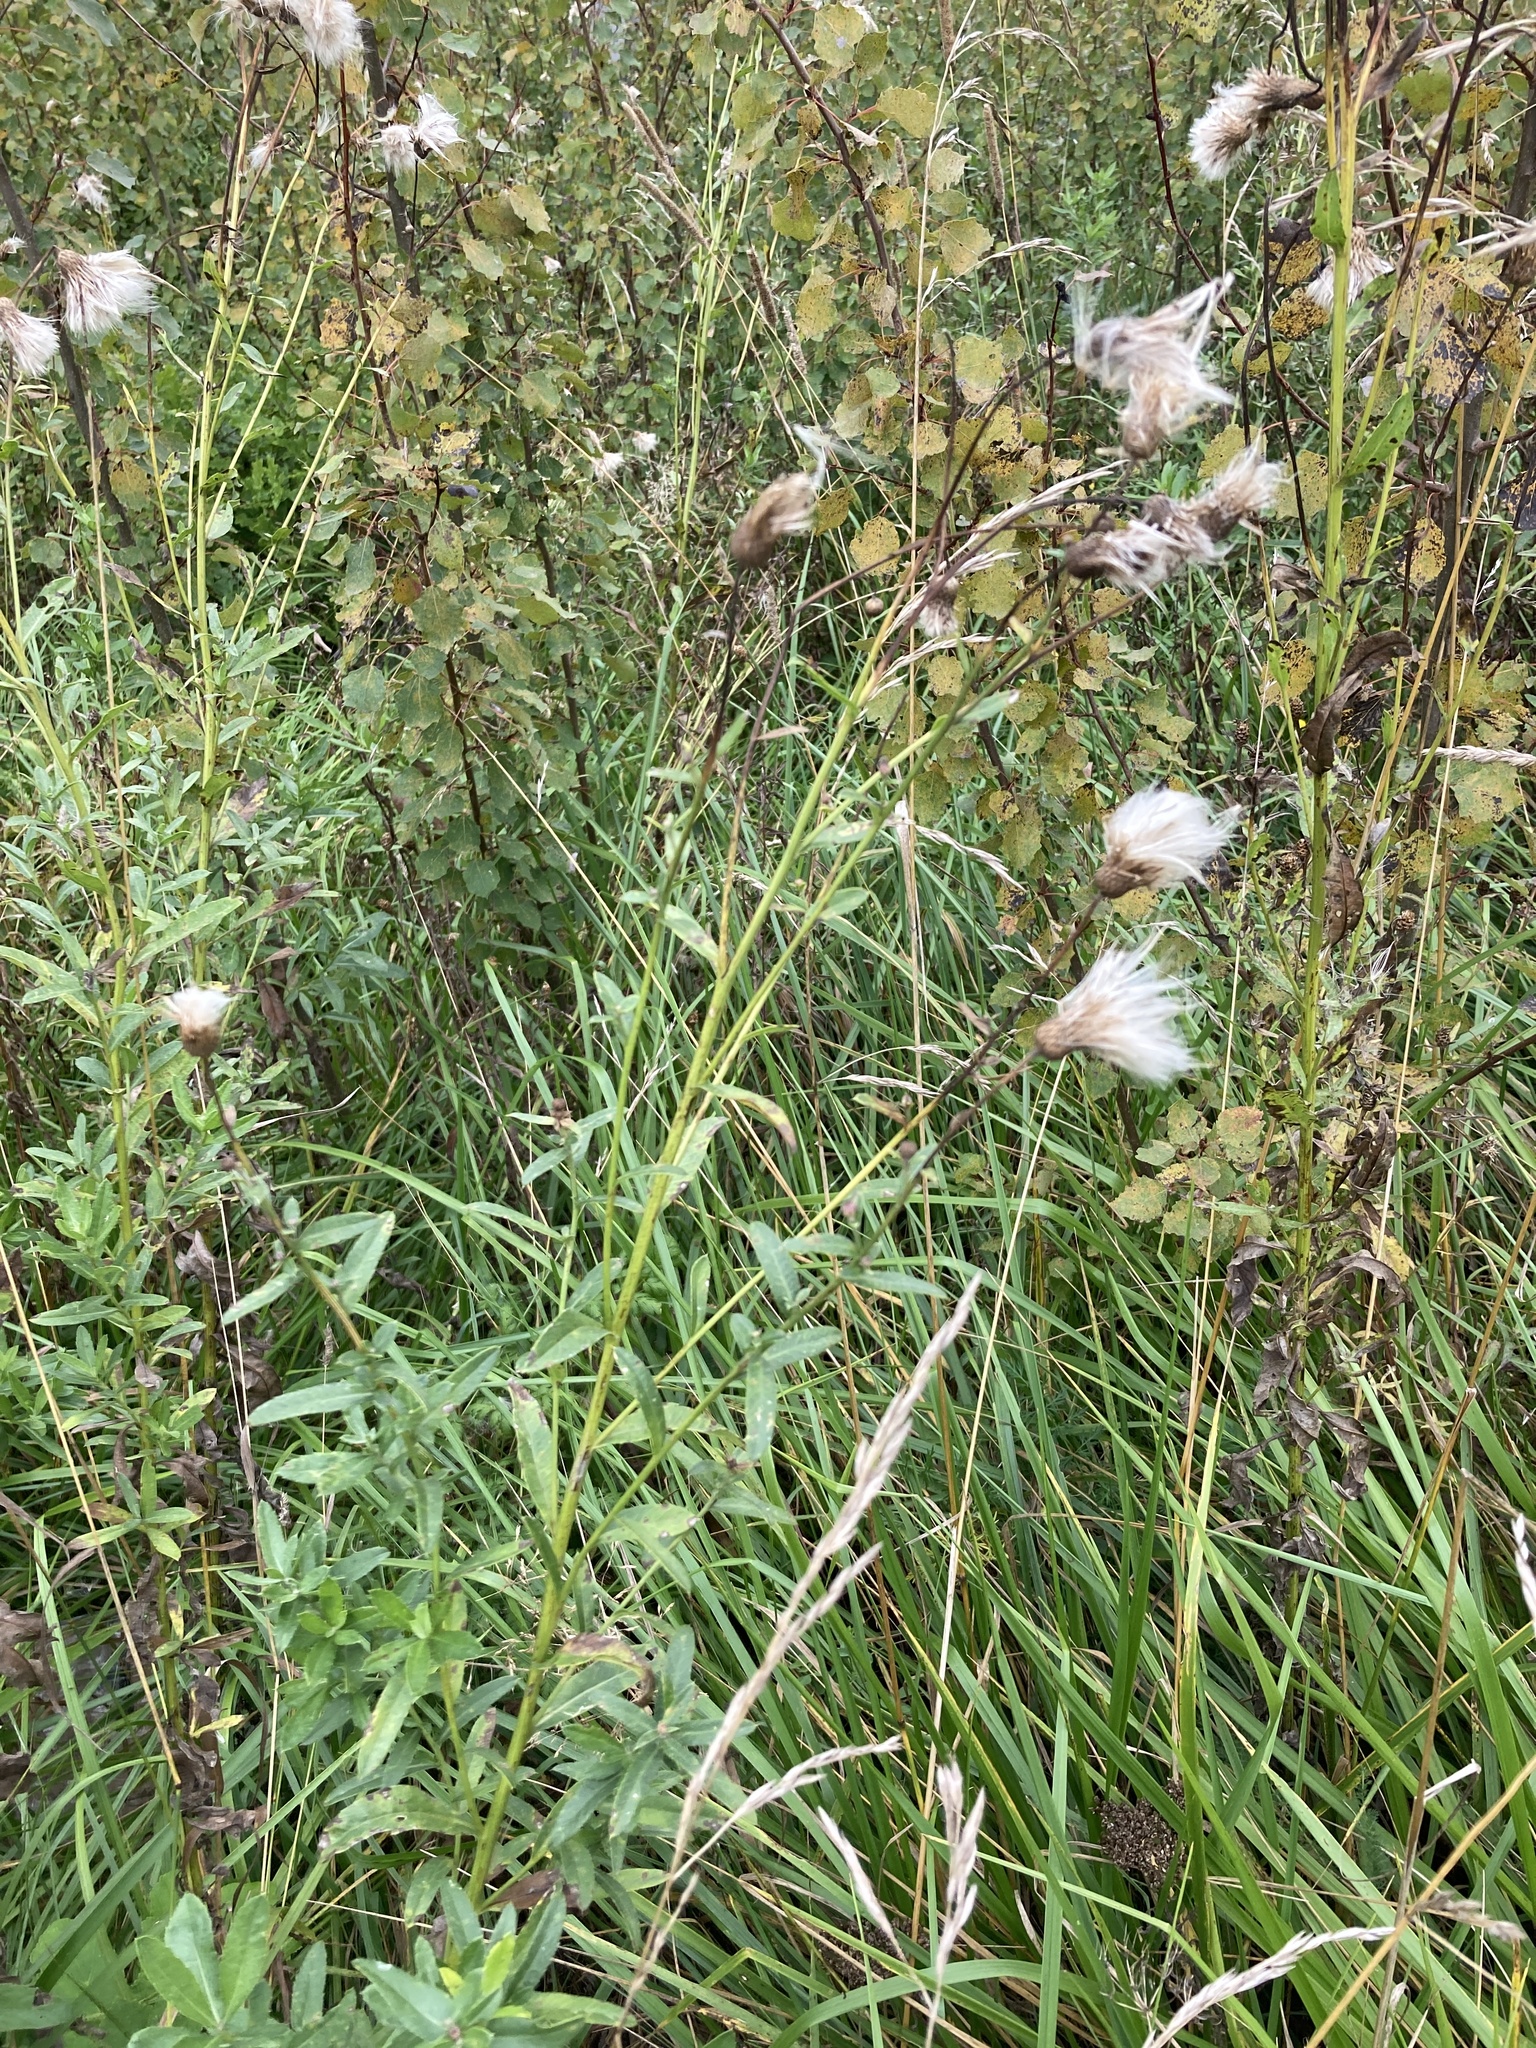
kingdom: Plantae
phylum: Tracheophyta
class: Magnoliopsida
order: Asterales
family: Asteraceae
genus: Cirsium
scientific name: Cirsium arvense
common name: Creeping thistle
